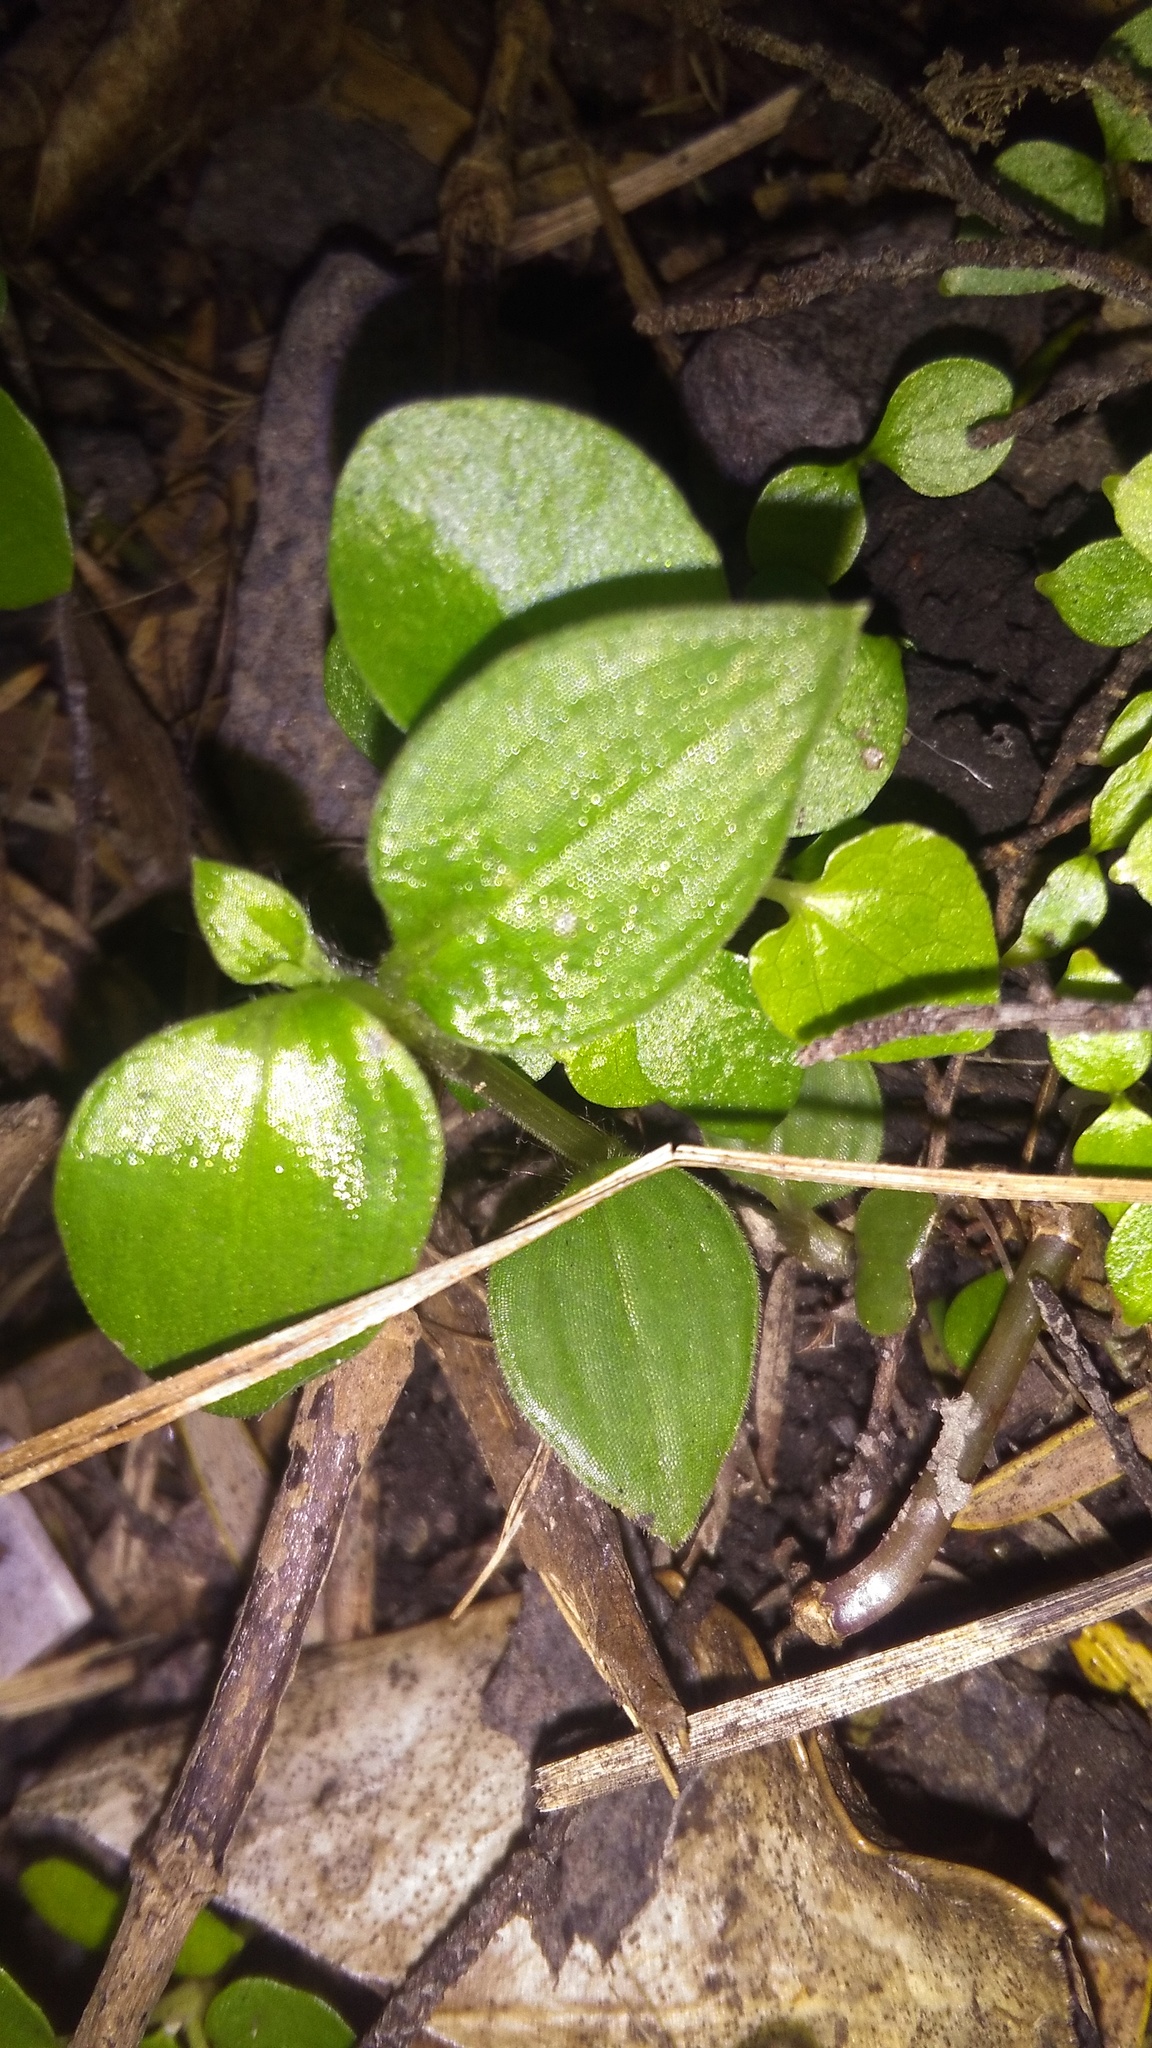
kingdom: Plantae
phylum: Tracheophyta
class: Liliopsida
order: Commelinales
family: Commelinaceae
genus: Tradescantia
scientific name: Tradescantia fluminensis
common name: Wandering-jew
